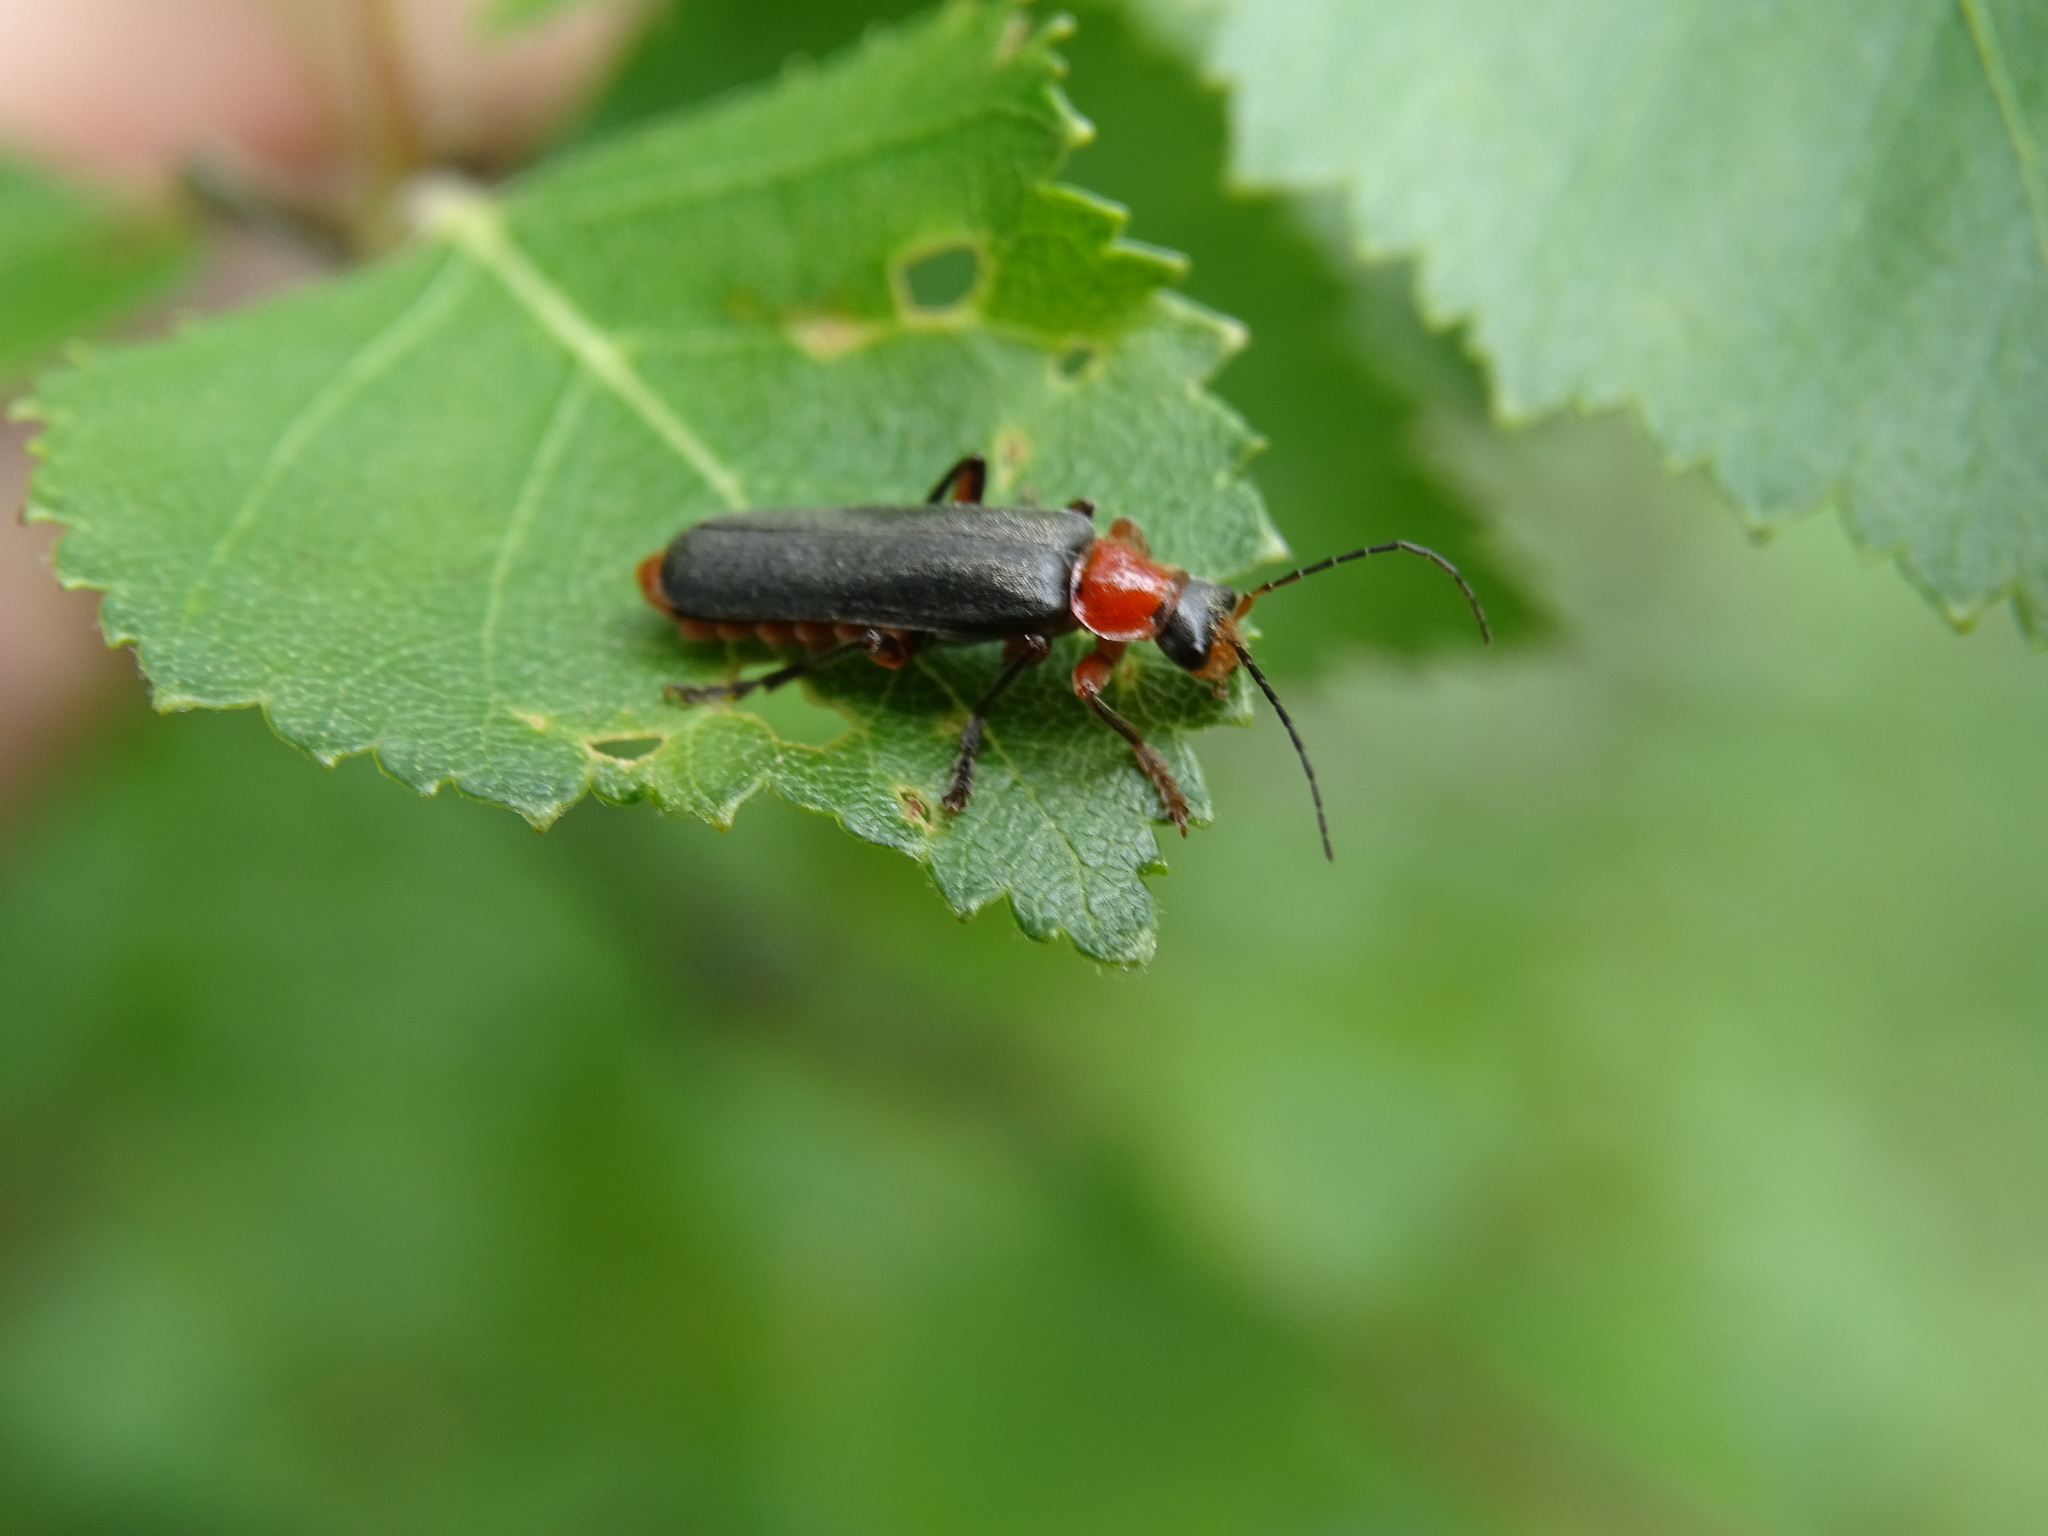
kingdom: Animalia
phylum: Arthropoda
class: Insecta
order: Coleoptera
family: Cantharidae
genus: Cantharis
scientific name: Cantharis pellucida
